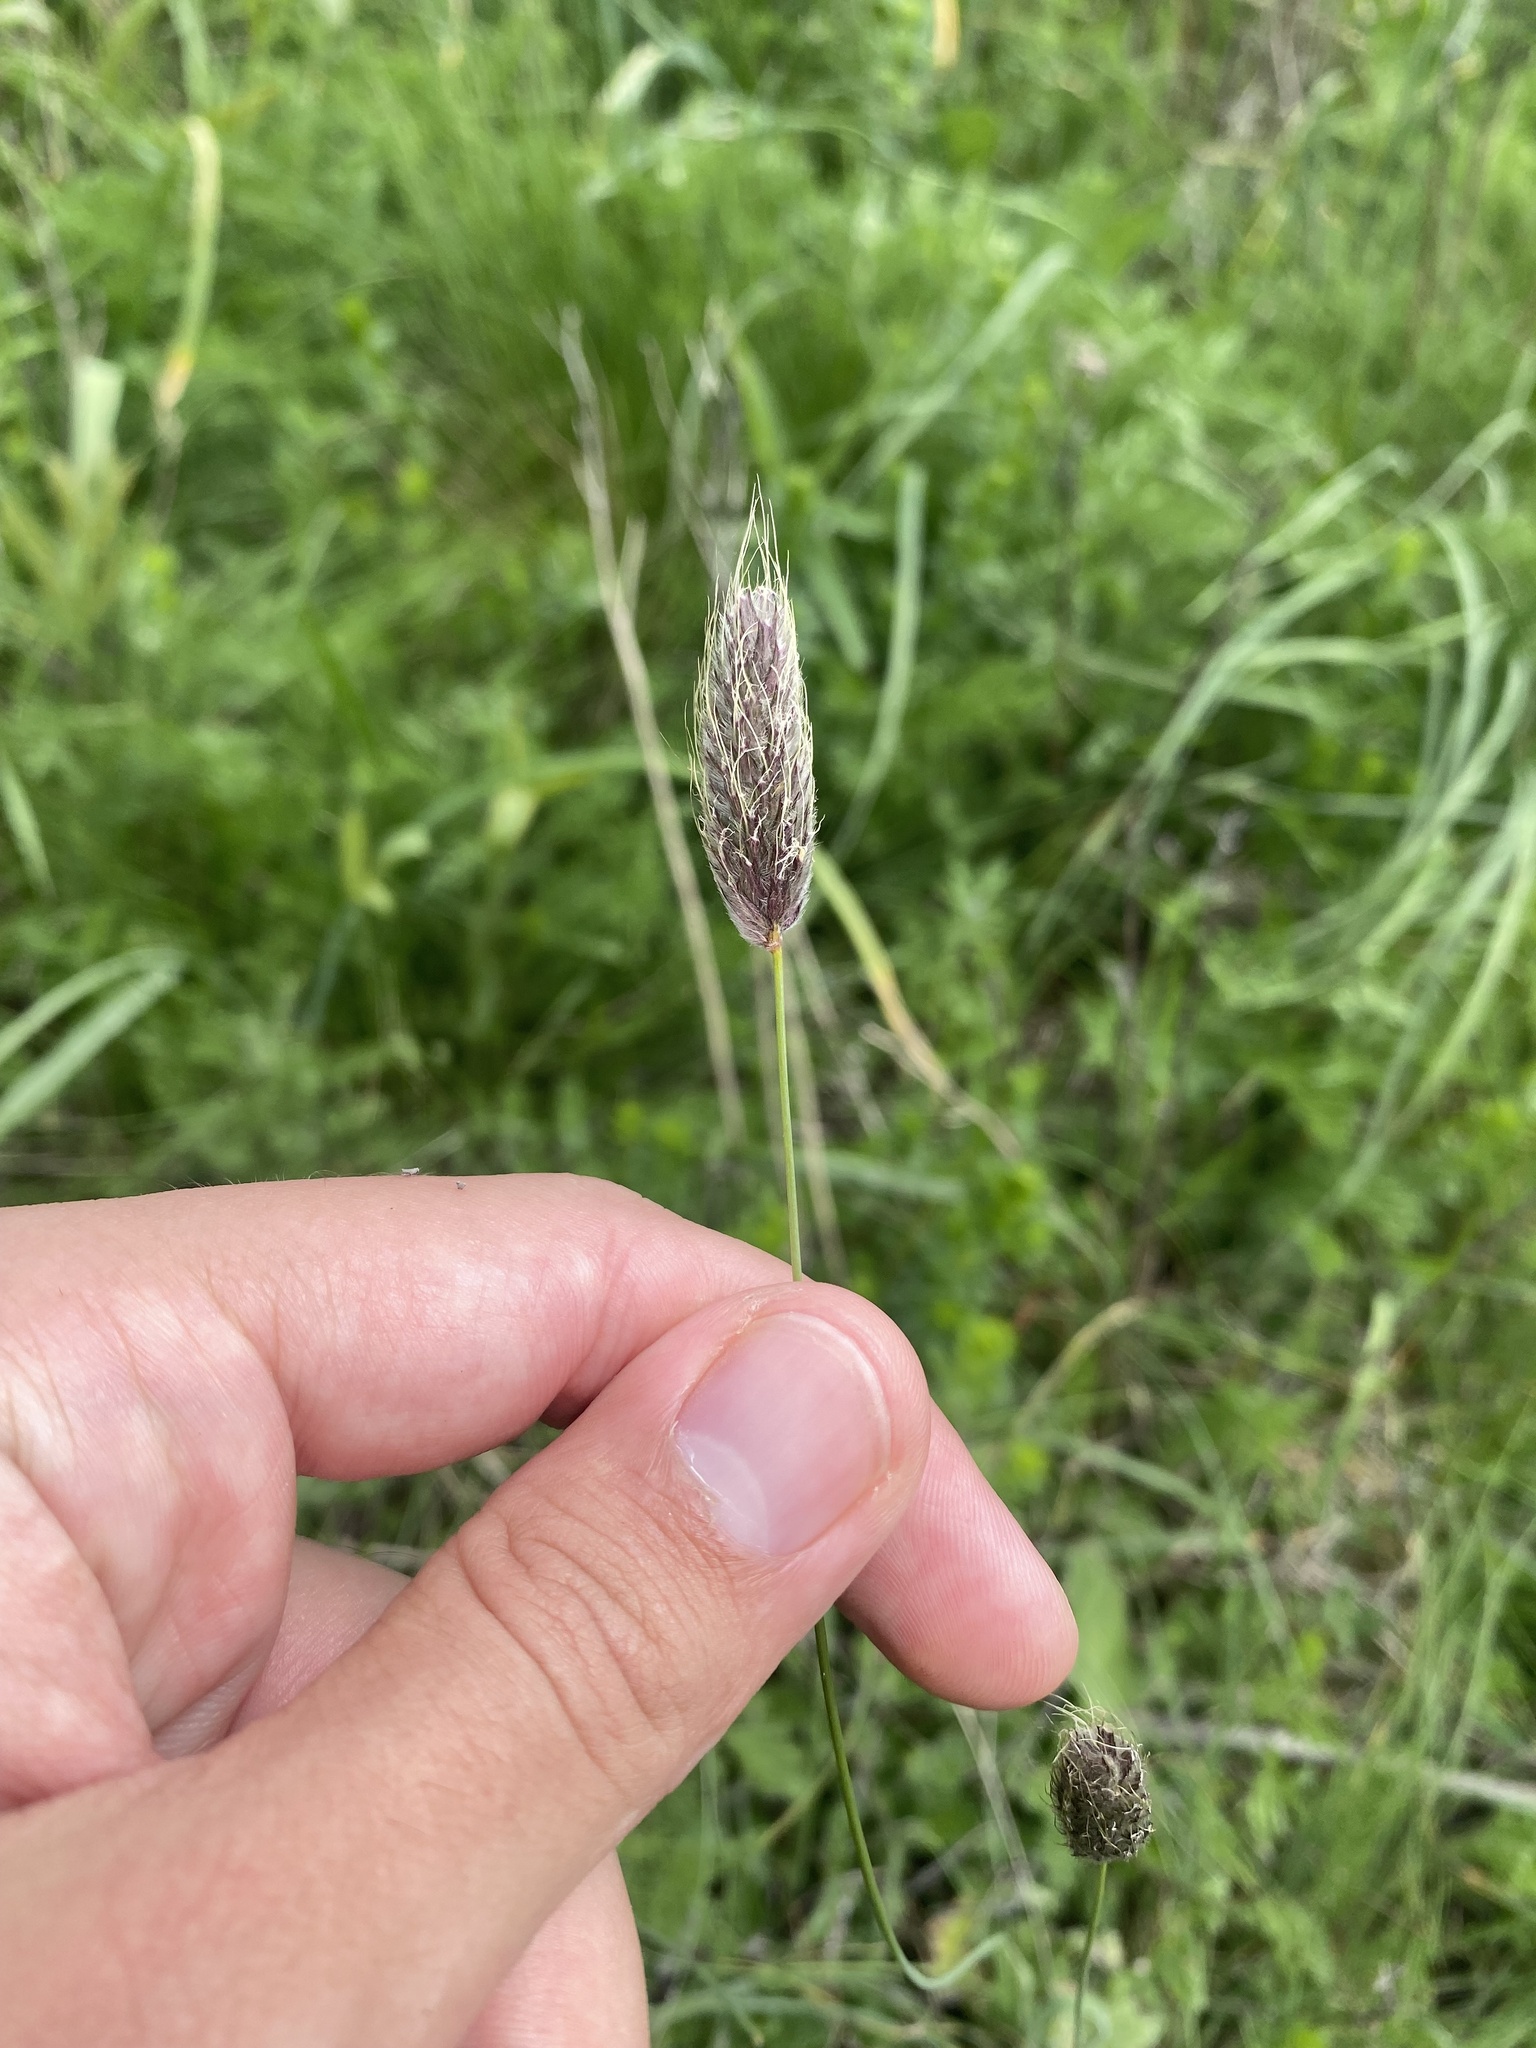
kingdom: Plantae
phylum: Tracheophyta
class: Liliopsida
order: Poales
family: Poaceae
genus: Alopecurus
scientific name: Alopecurus vaginatus
